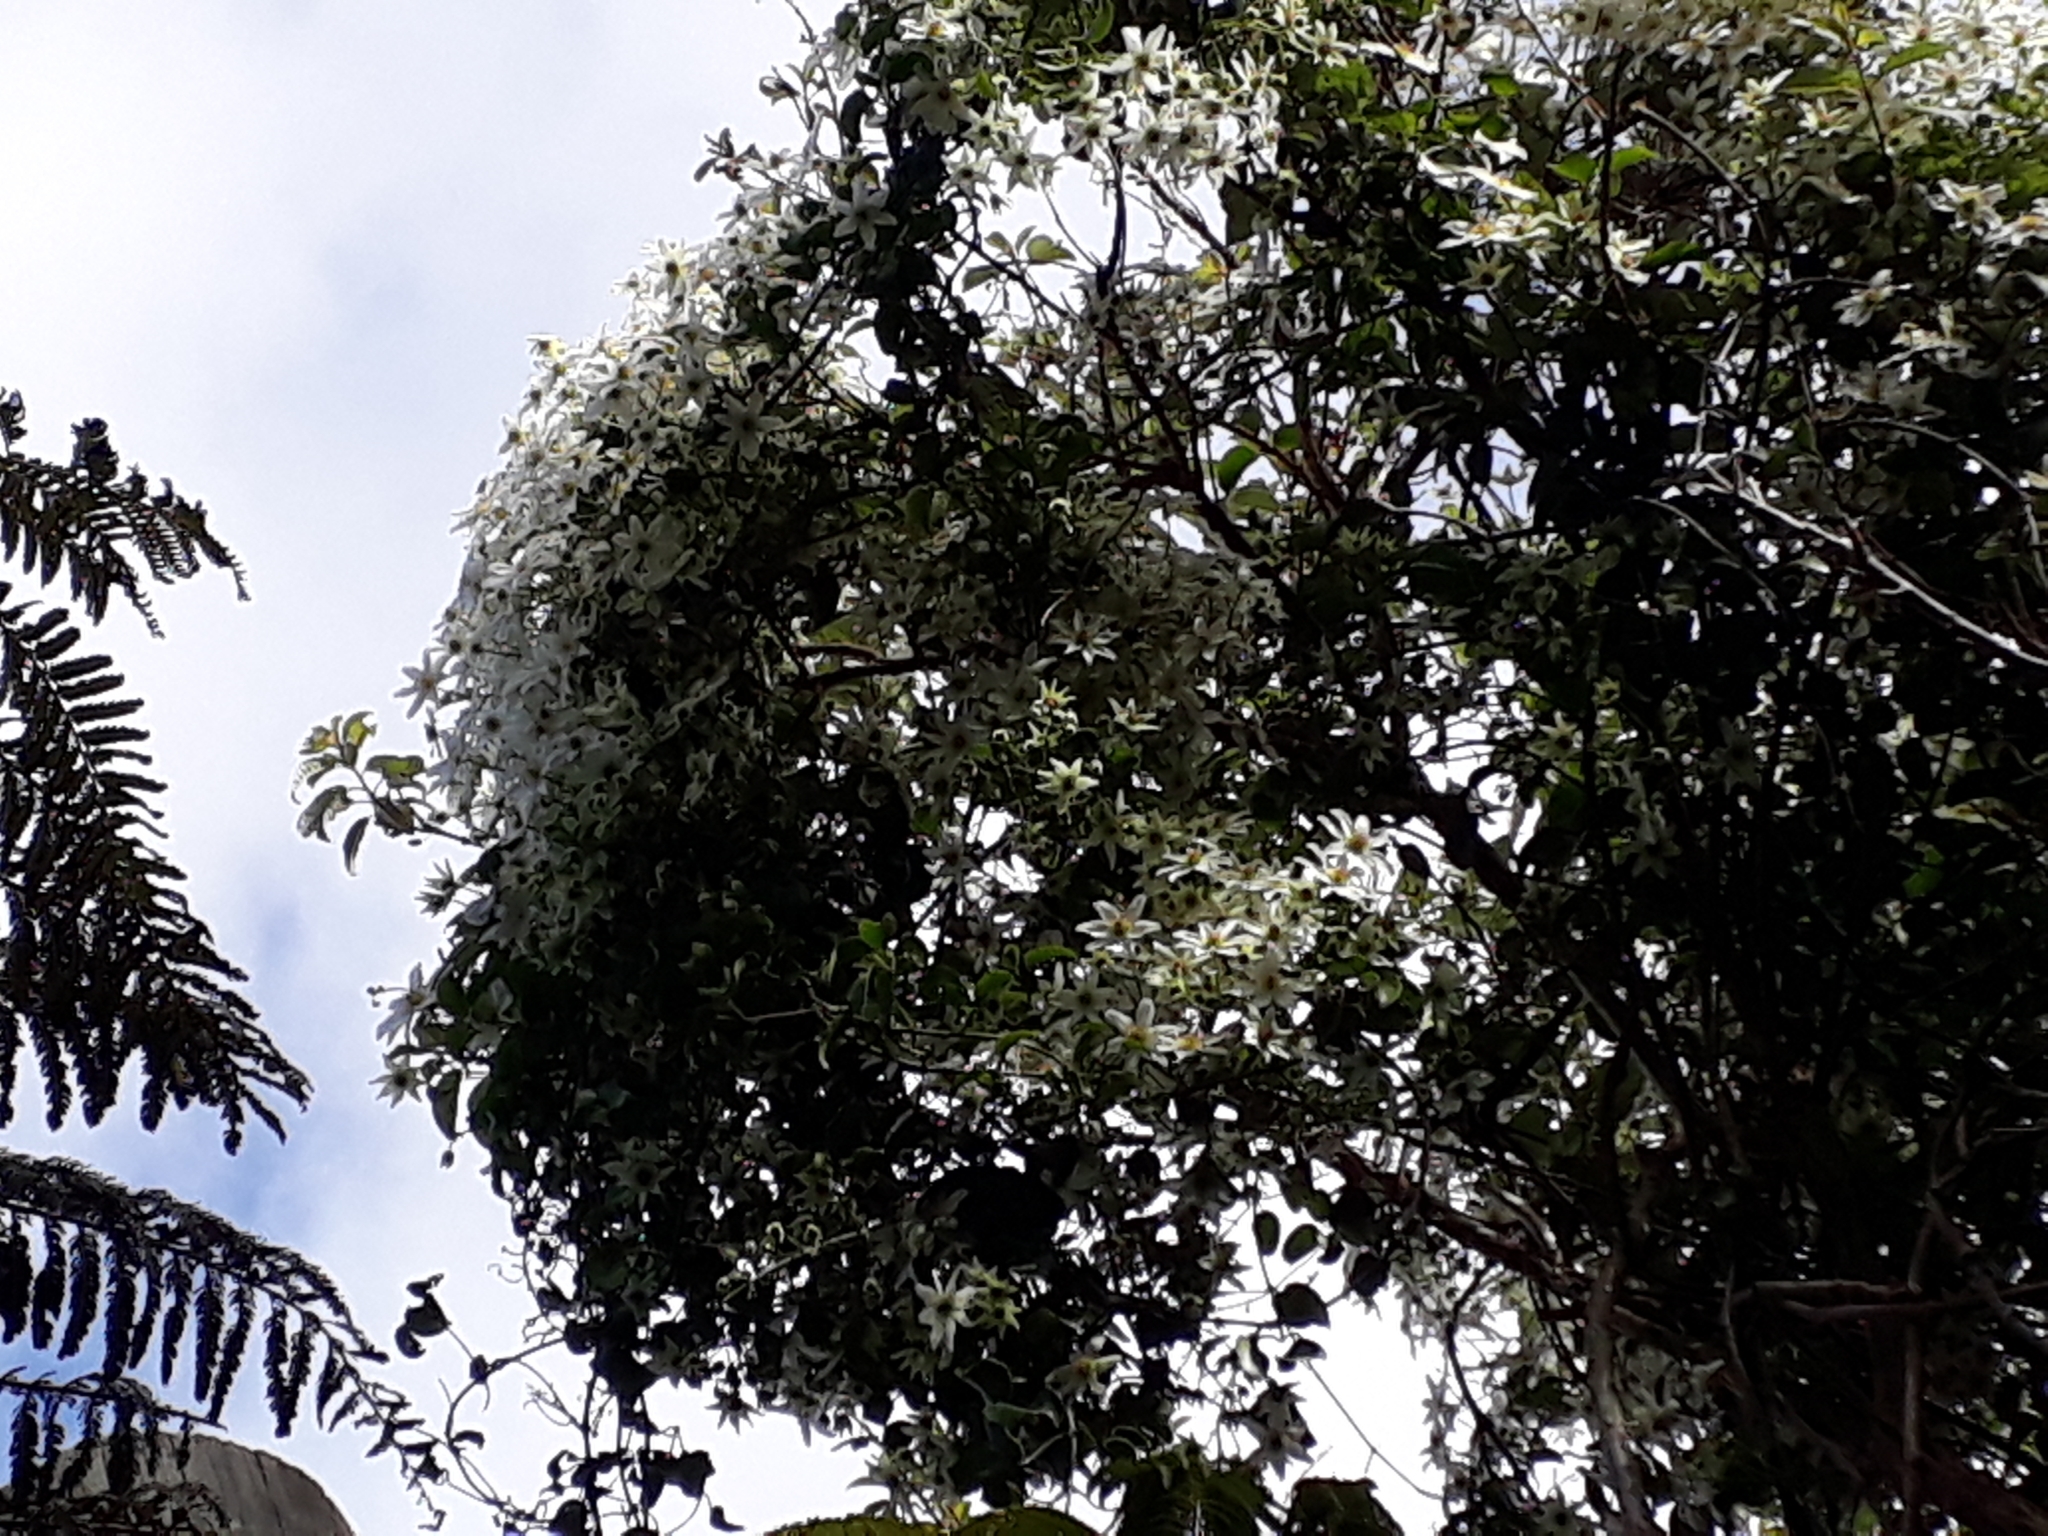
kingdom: Plantae
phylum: Tracheophyta
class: Magnoliopsida
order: Ranunculales
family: Ranunculaceae
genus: Clematis
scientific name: Clematis paniculata
